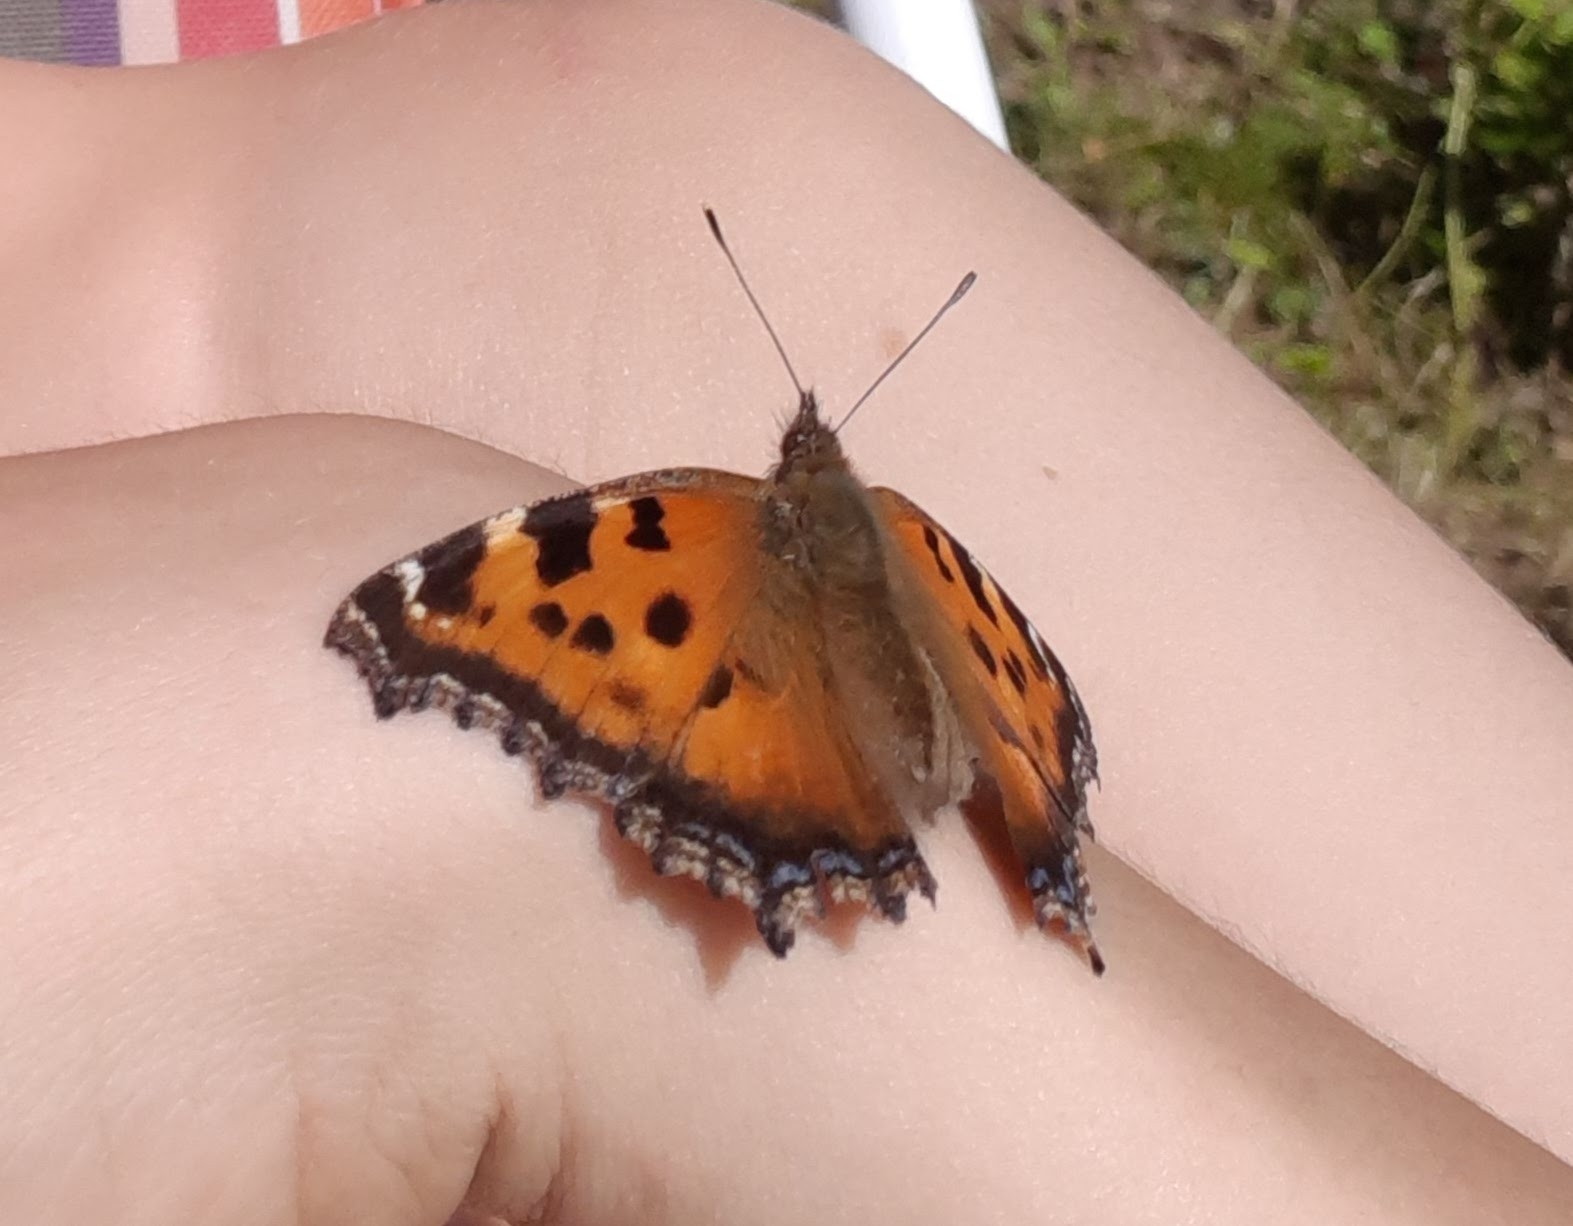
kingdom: Animalia
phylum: Arthropoda
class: Insecta
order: Lepidoptera
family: Nymphalidae
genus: Nymphalis
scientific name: Nymphalis xanthomelas
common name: Scarce tortoiseshell
